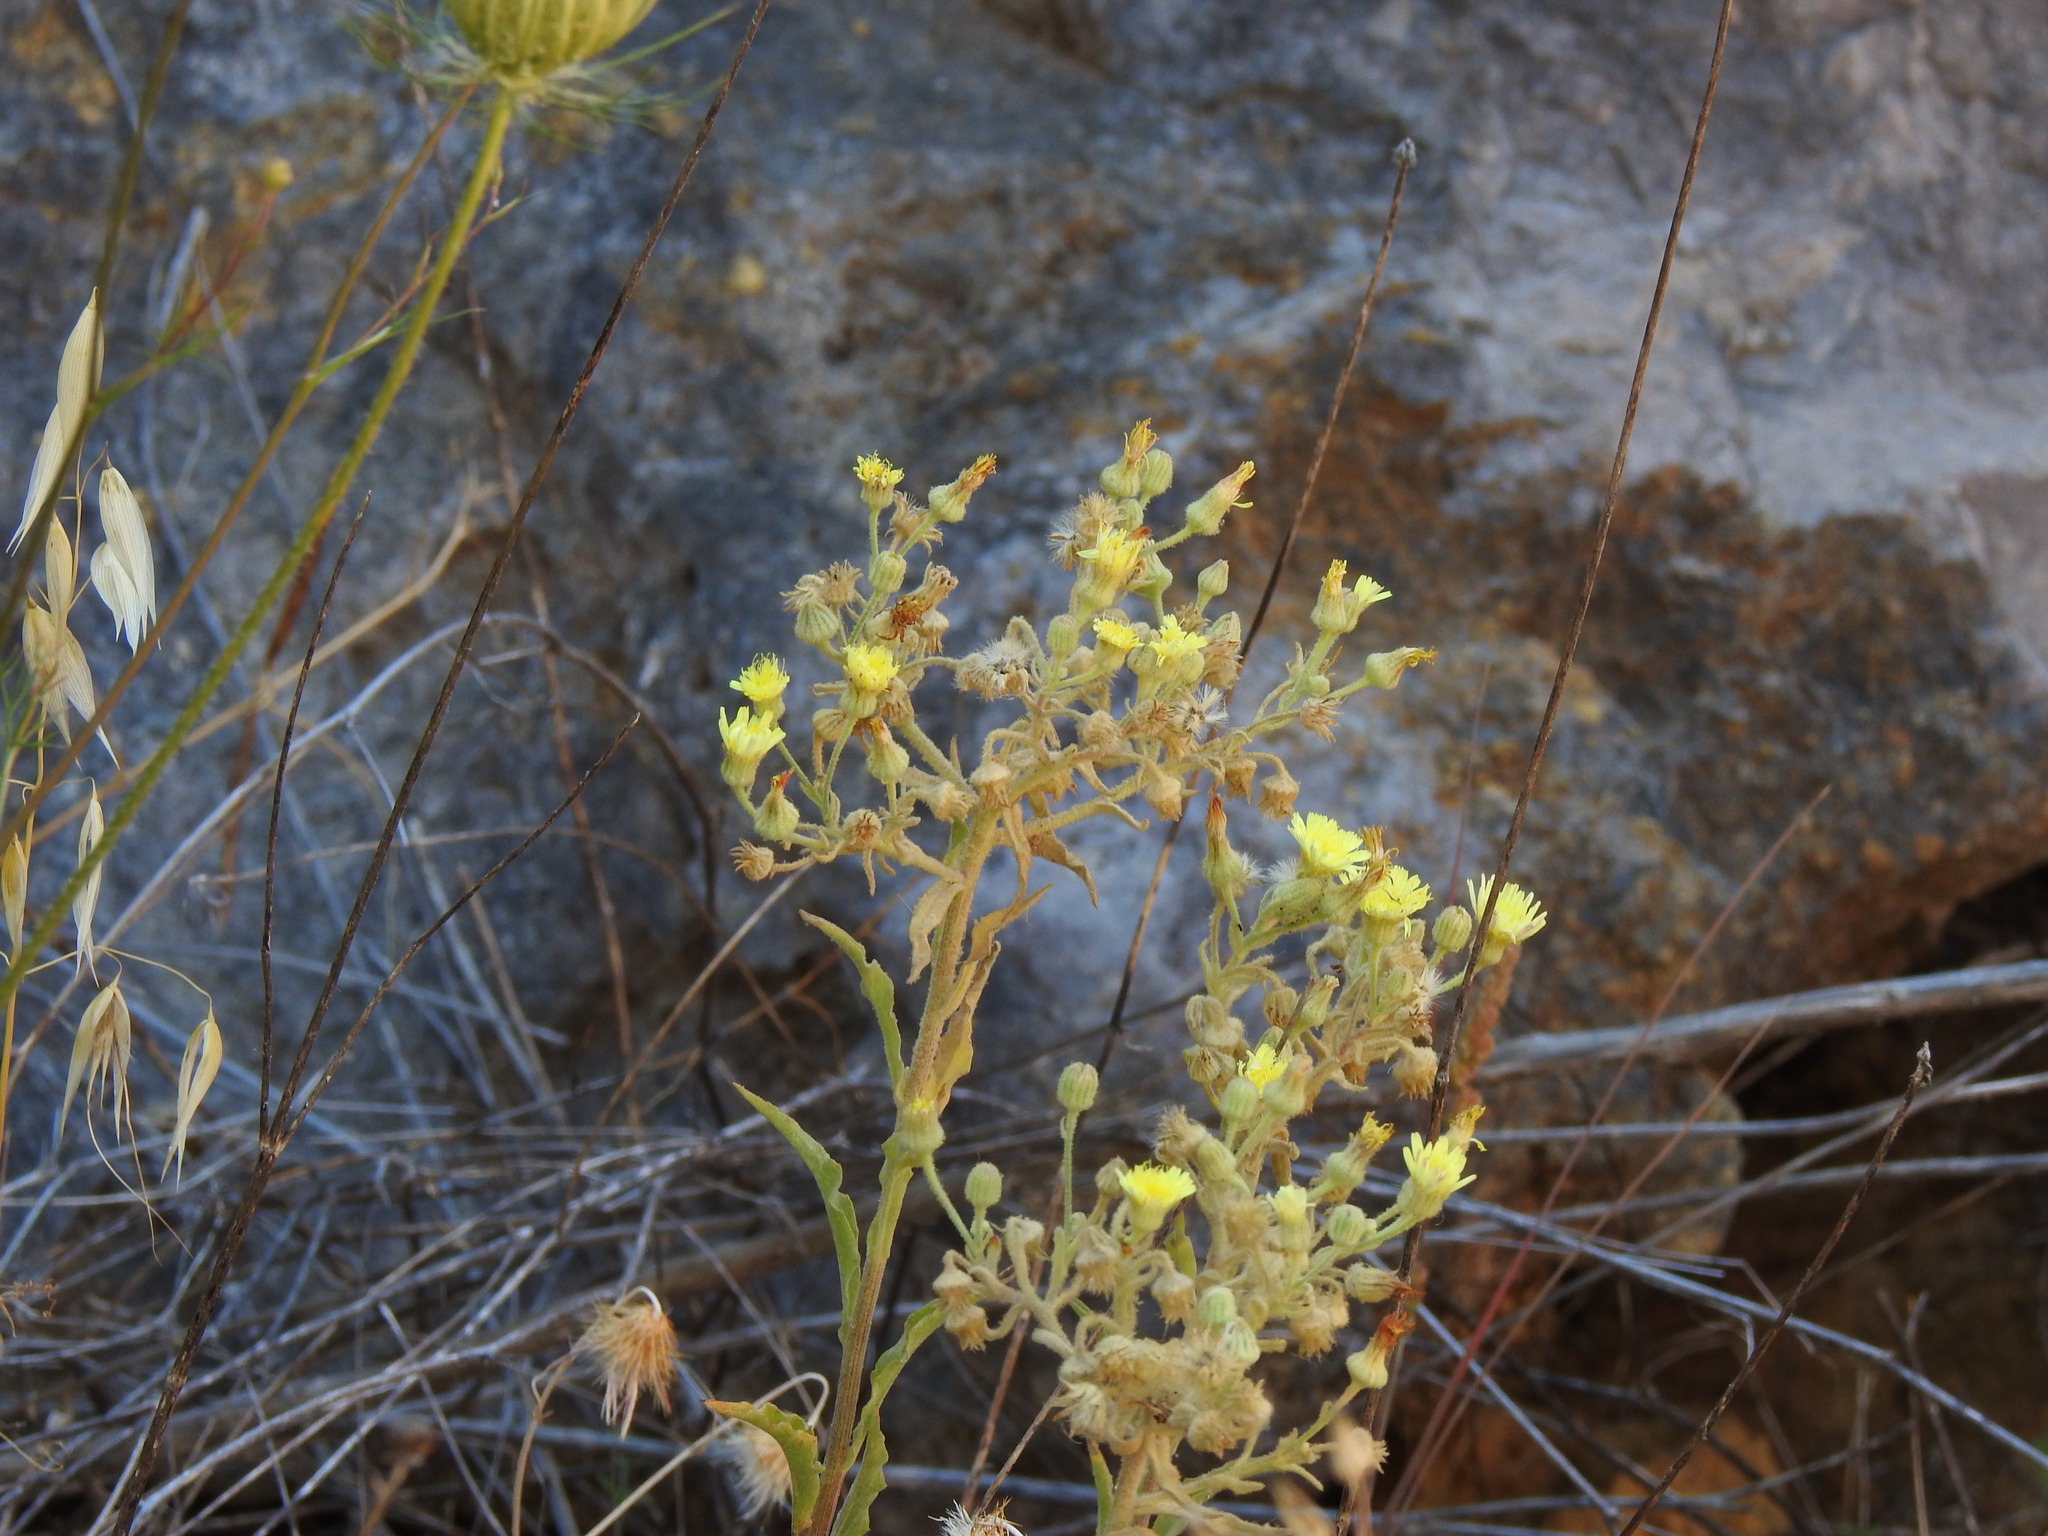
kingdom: Plantae
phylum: Tracheophyta
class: Magnoliopsida
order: Asterales
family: Asteraceae
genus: Andryala
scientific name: Andryala integrifolia
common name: Common andryala
